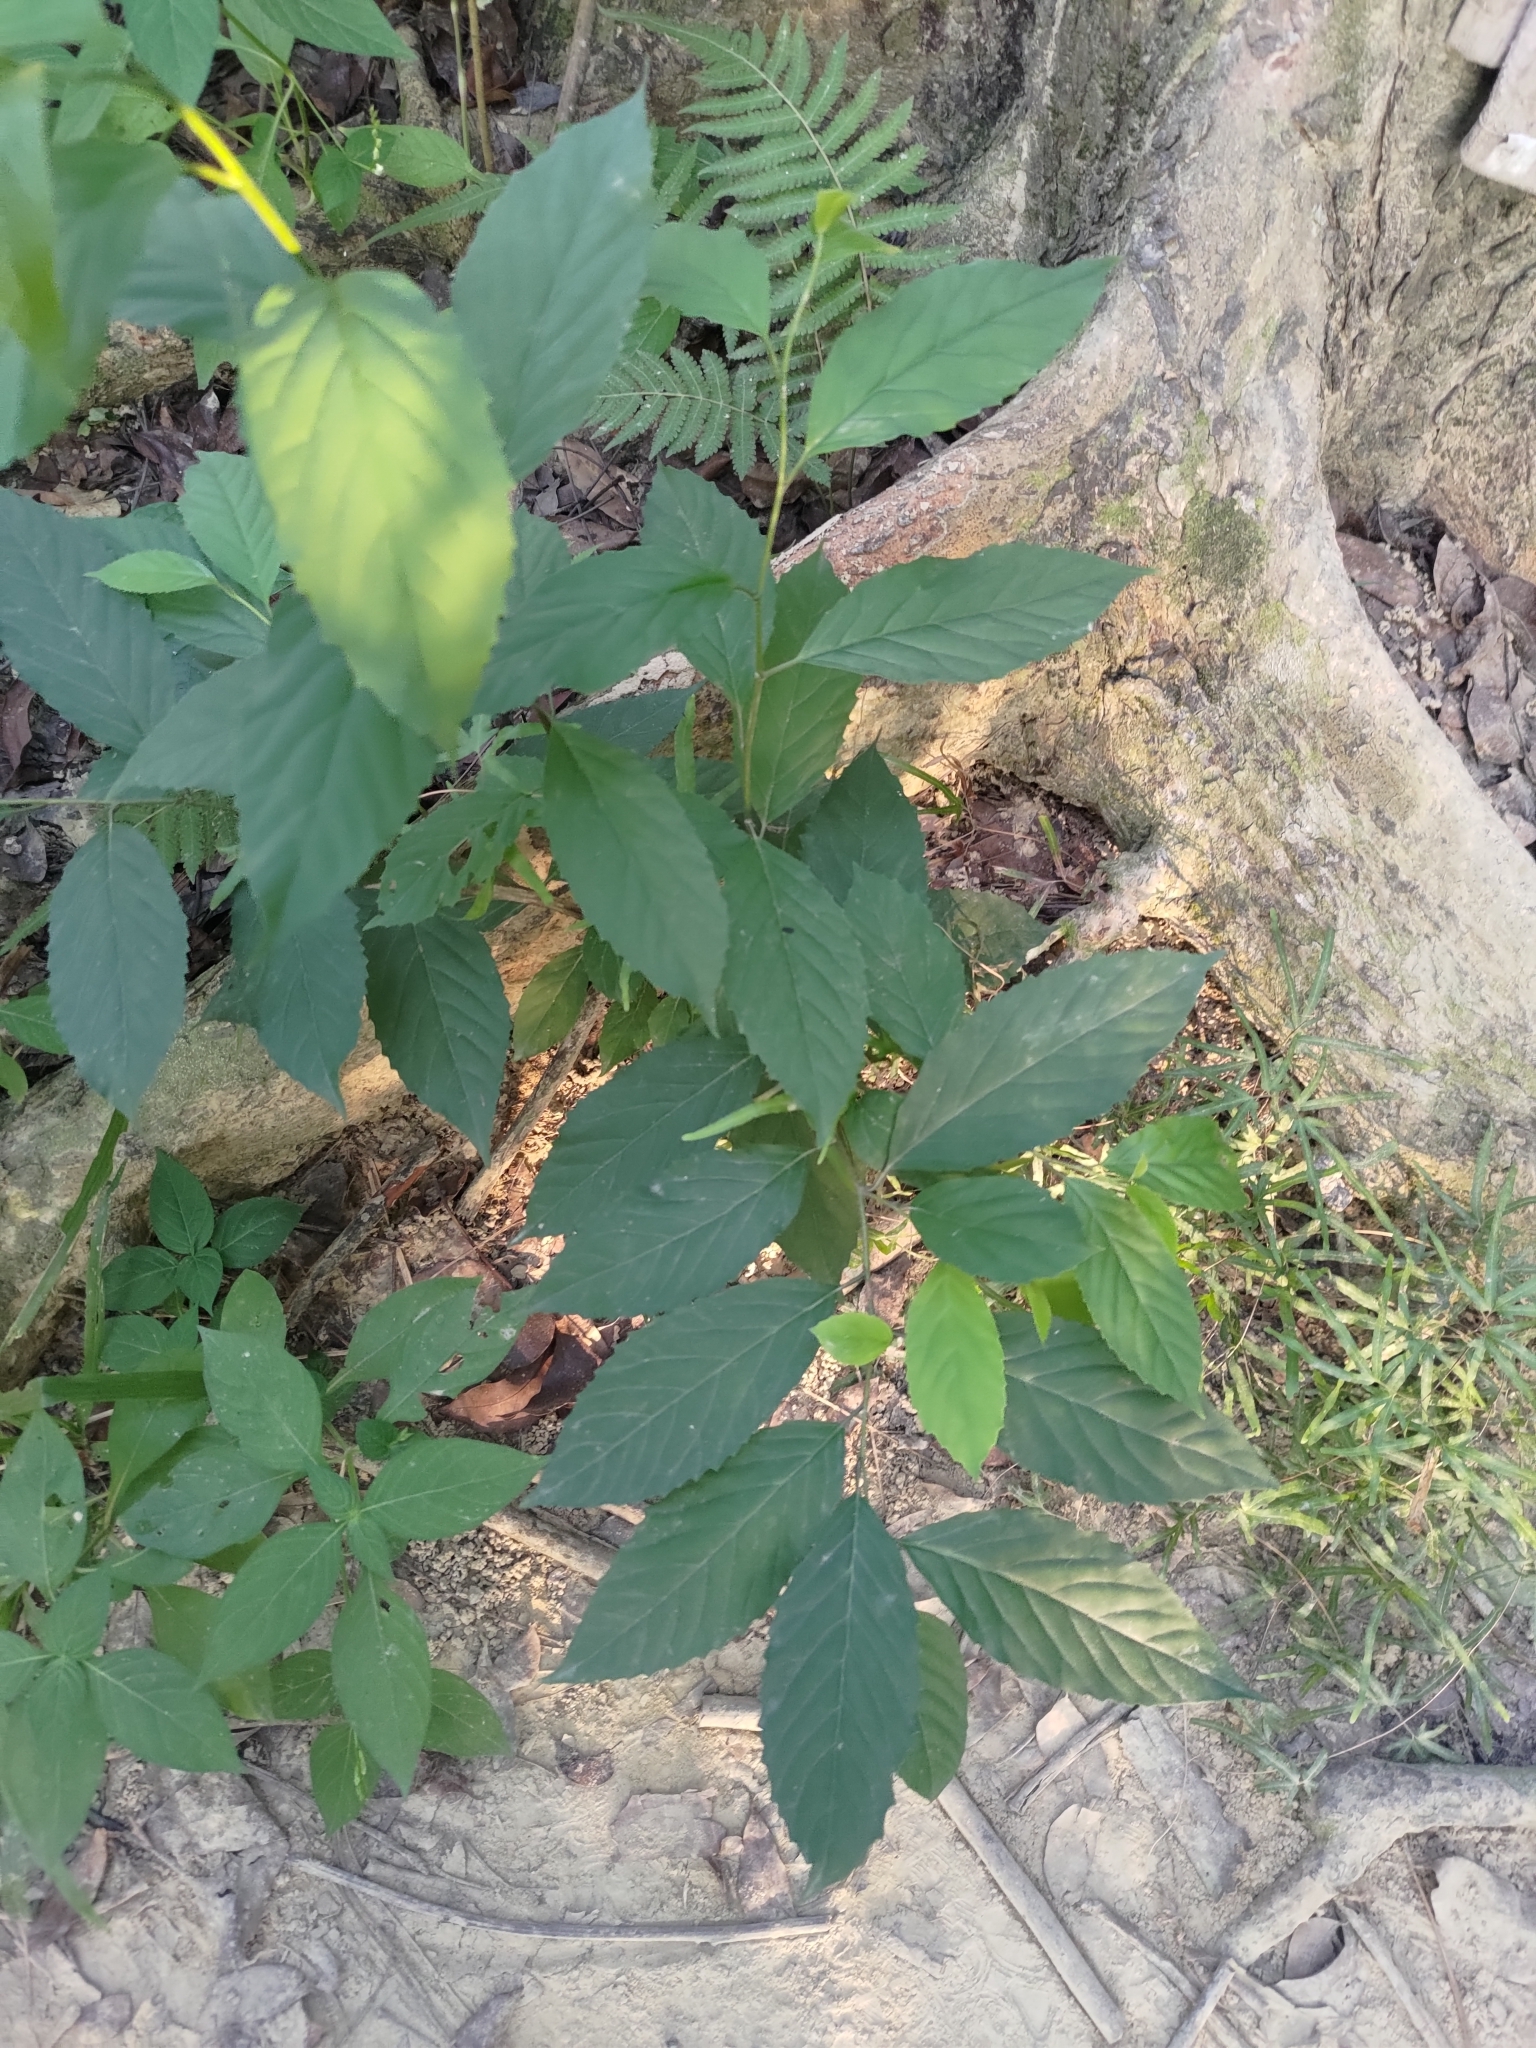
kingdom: Plantae
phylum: Tracheophyta
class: Magnoliopsida
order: Ericales
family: Primulaceae
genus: Maesa
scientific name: Maesa perlaria
